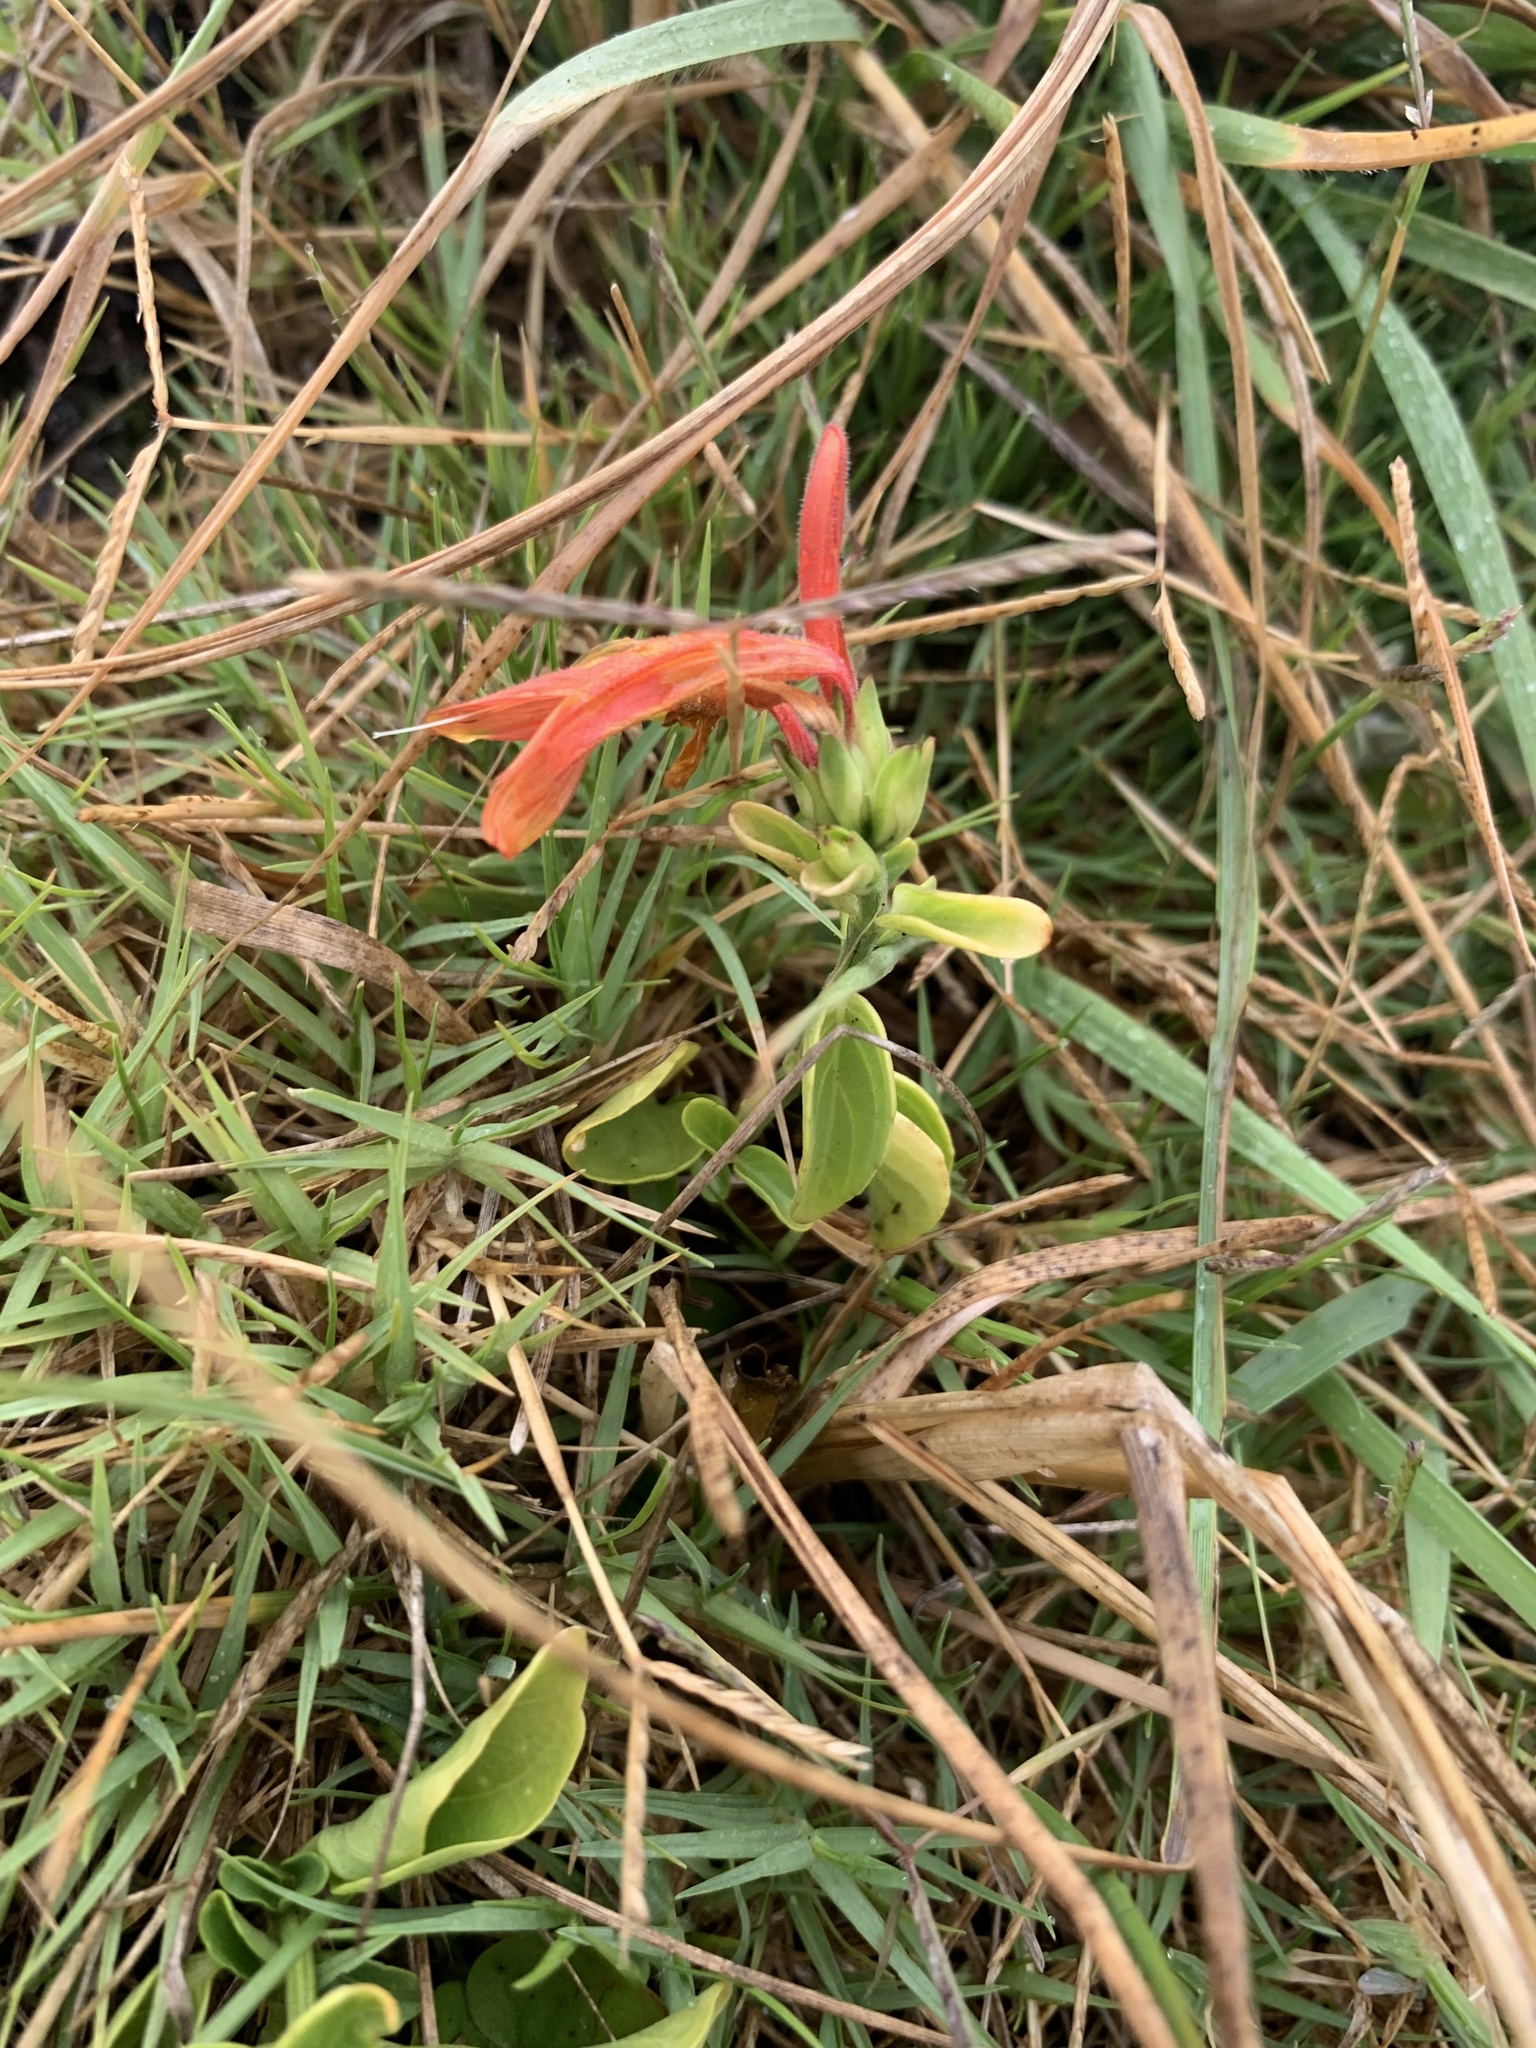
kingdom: Plantae
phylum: Tracheophyta
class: Magnoliopsida
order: Lamiales
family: Acanthaceae
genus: Dicliptera
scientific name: Dicliptera squarrosa
